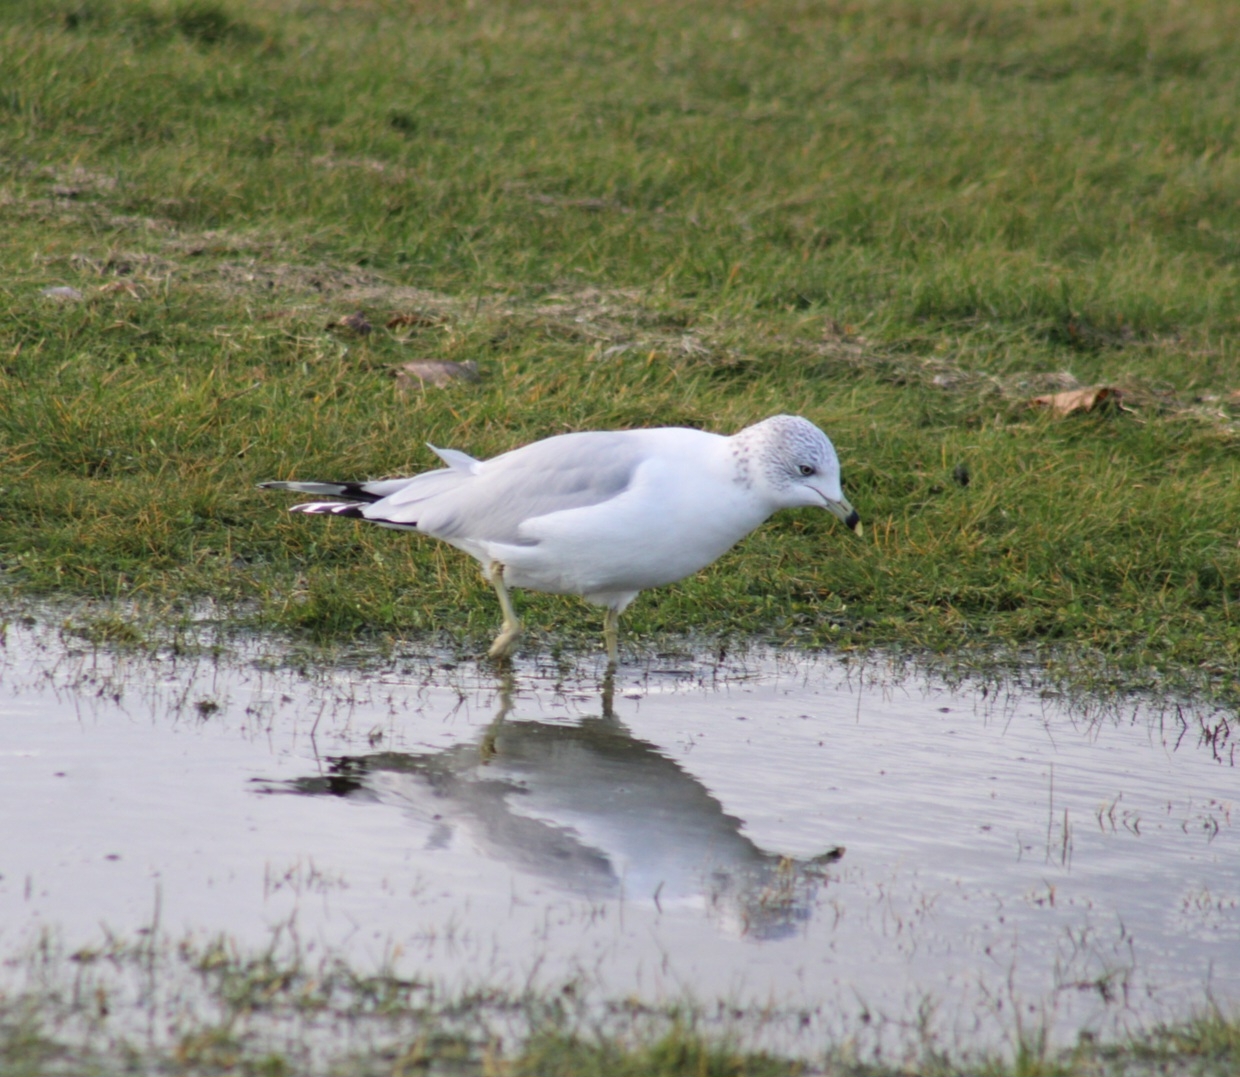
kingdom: Animalia
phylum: Chordata
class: Aves
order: Charadriiformes
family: Laridae
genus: Larus
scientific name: Larus delawarensis
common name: Ring-billed gull
